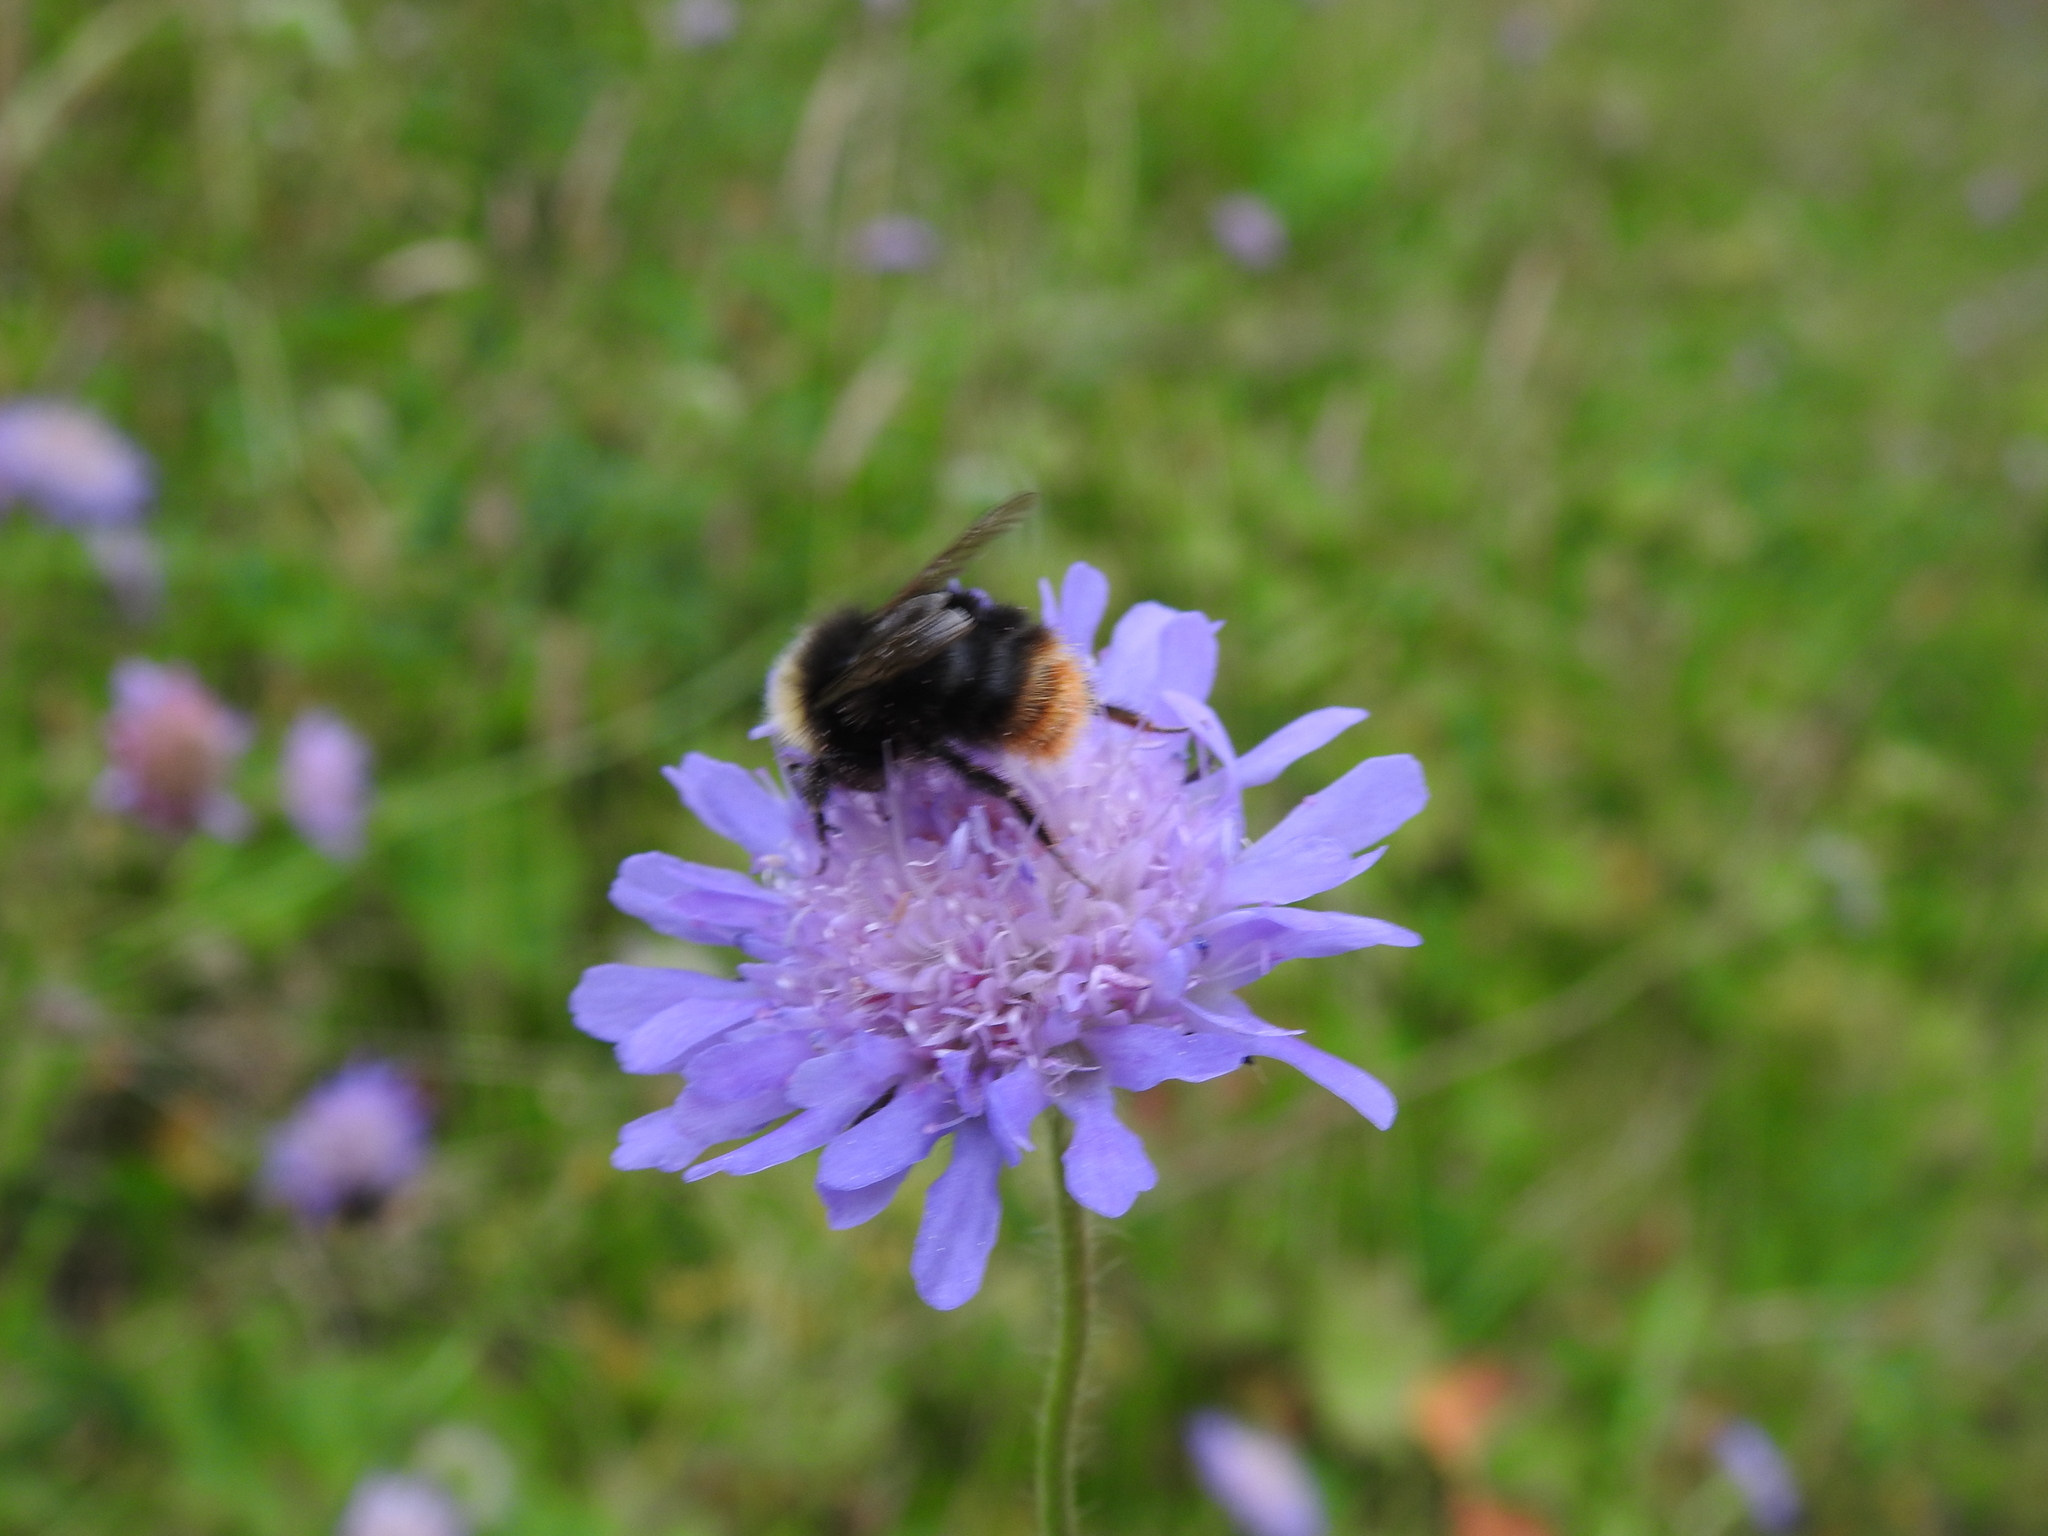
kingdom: Animalia
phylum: Arthropoda
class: Insecta
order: Hymenoptera
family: Apidae
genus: Bombus
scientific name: Bombus pratorum
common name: Early humble-bee
